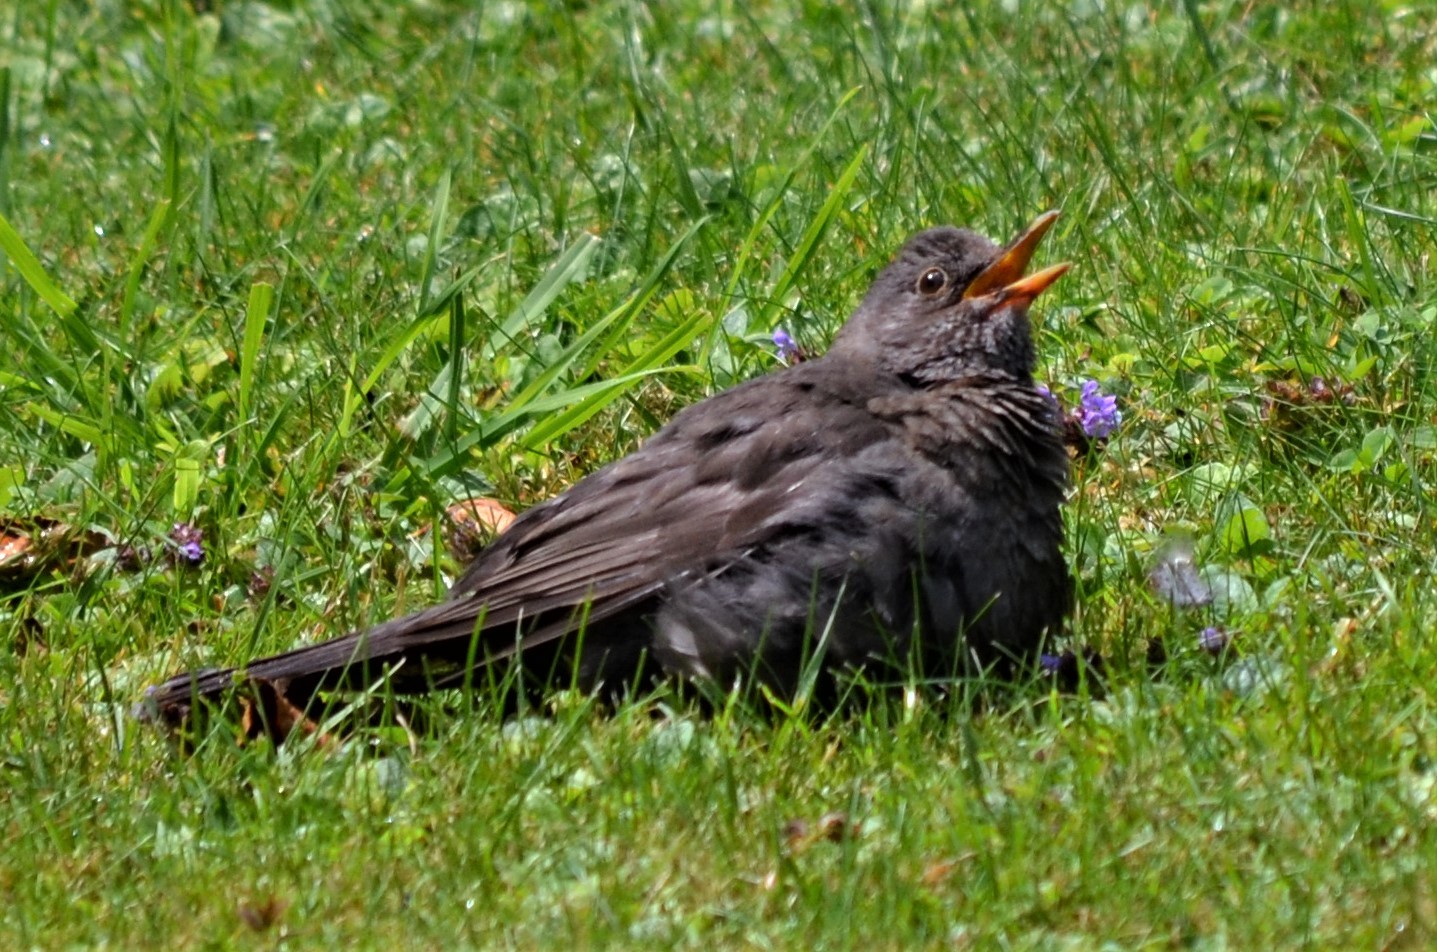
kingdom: Animalia
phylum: Chordata
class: Aves
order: Passeriformes
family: Turdidae
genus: Turdus
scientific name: Turdus merula
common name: Common blackbird
